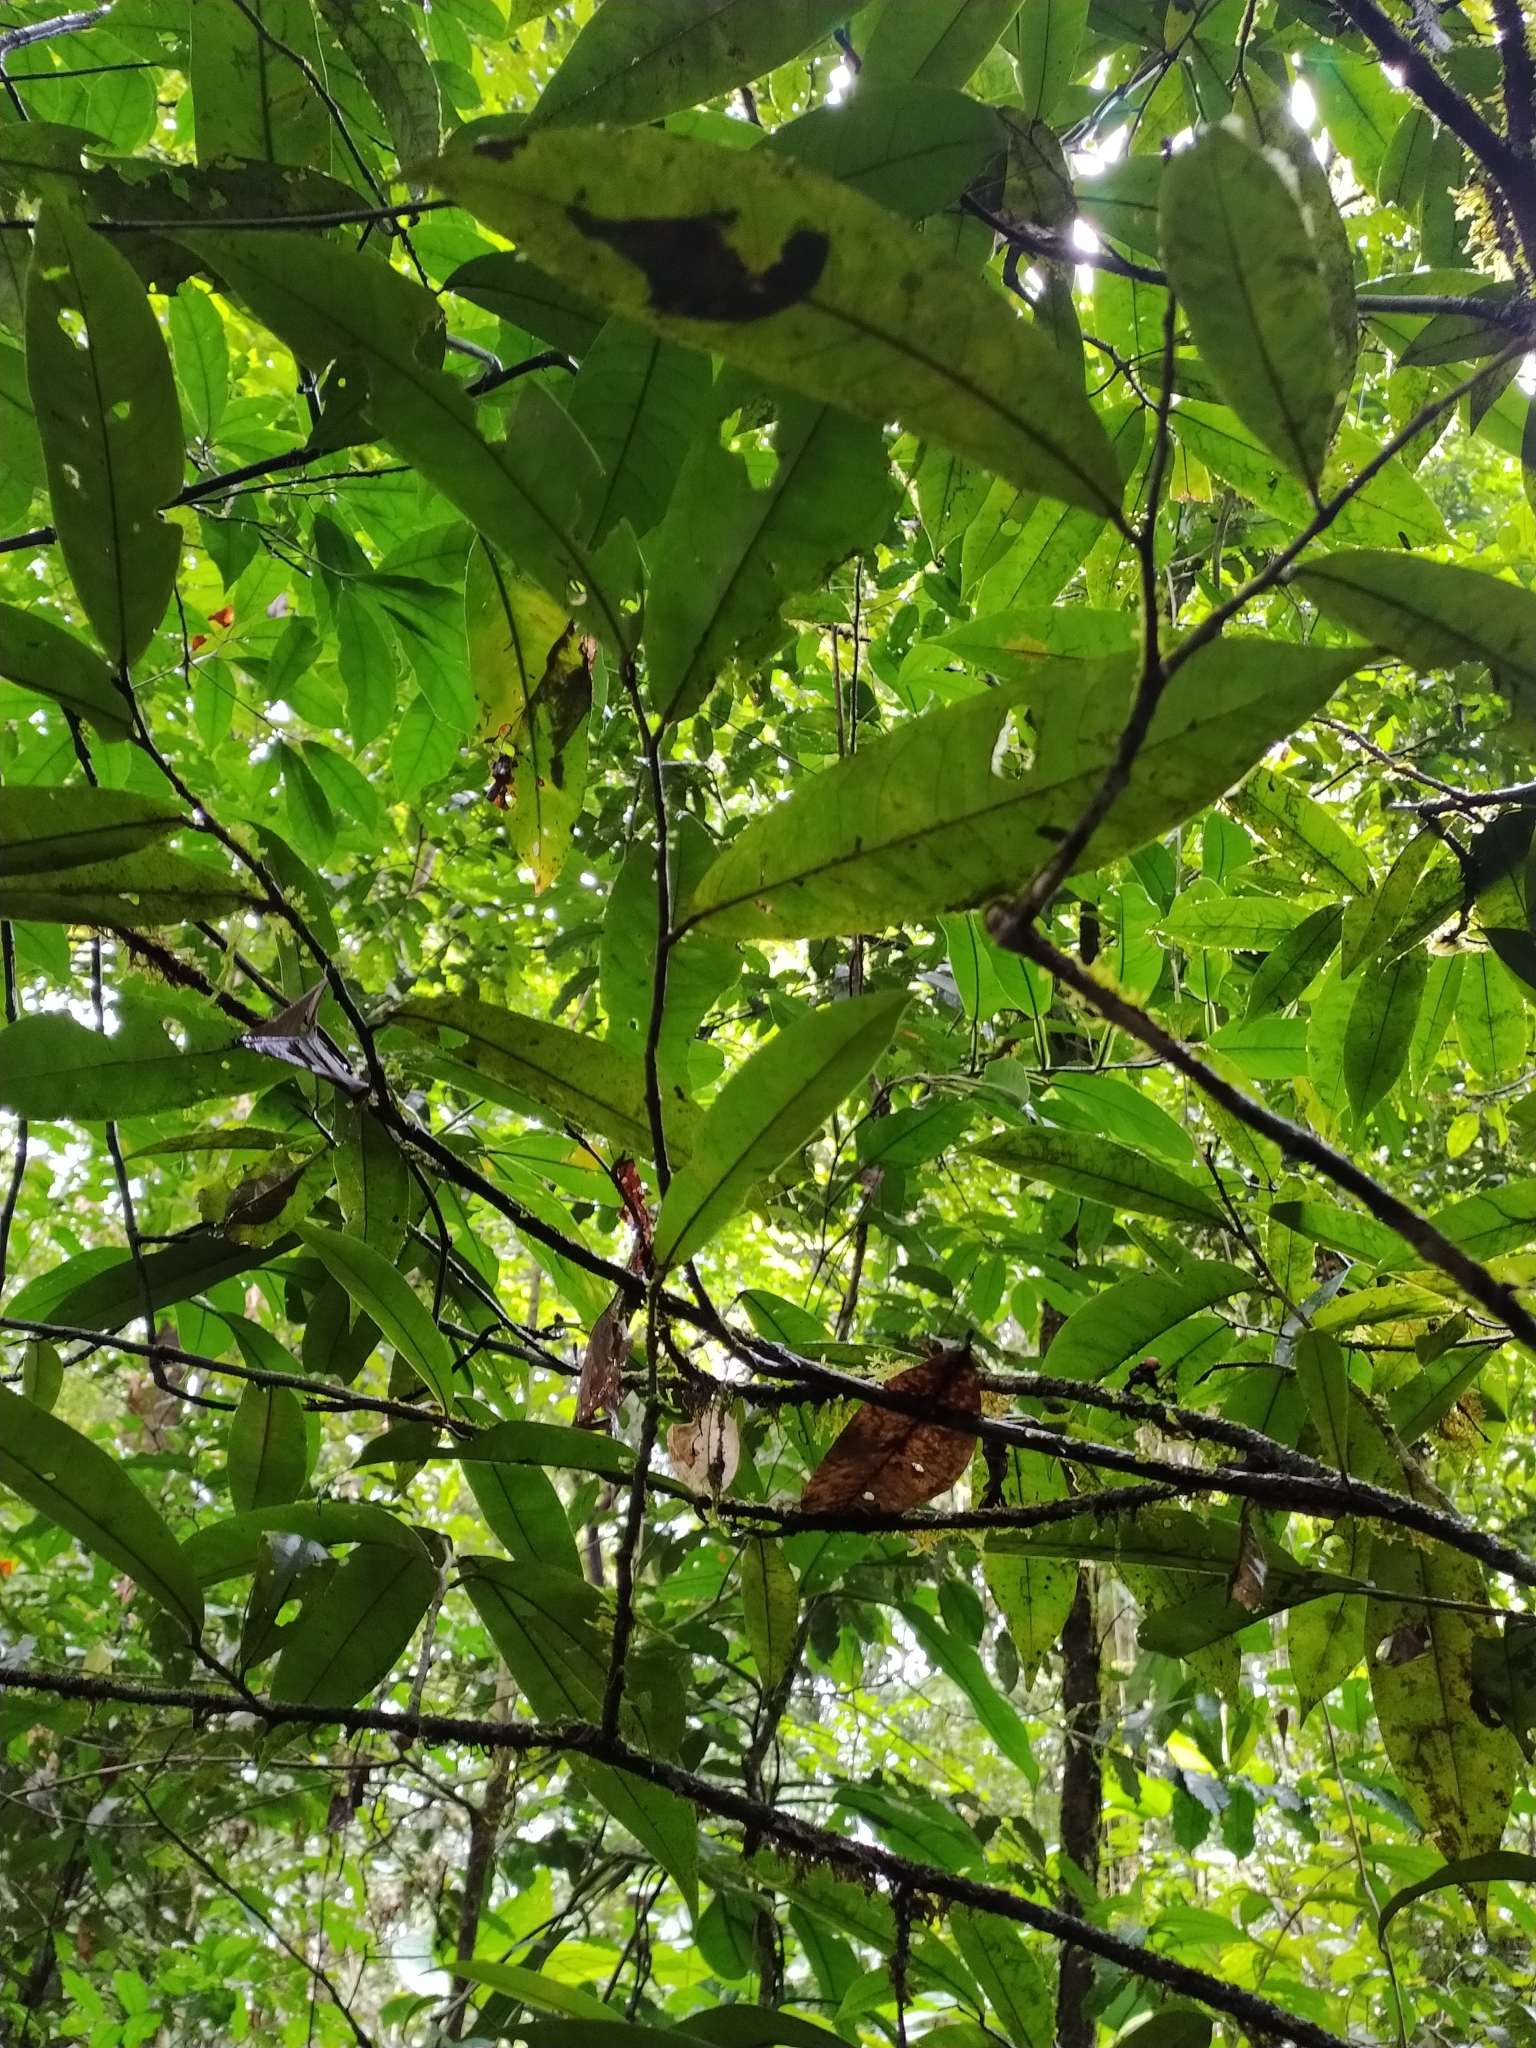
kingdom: Plantae
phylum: Tracheophyta
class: Magnoliopsida
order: Magnoliales
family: Annonaceae
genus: Anaxagorea
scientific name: Anaxagorea
